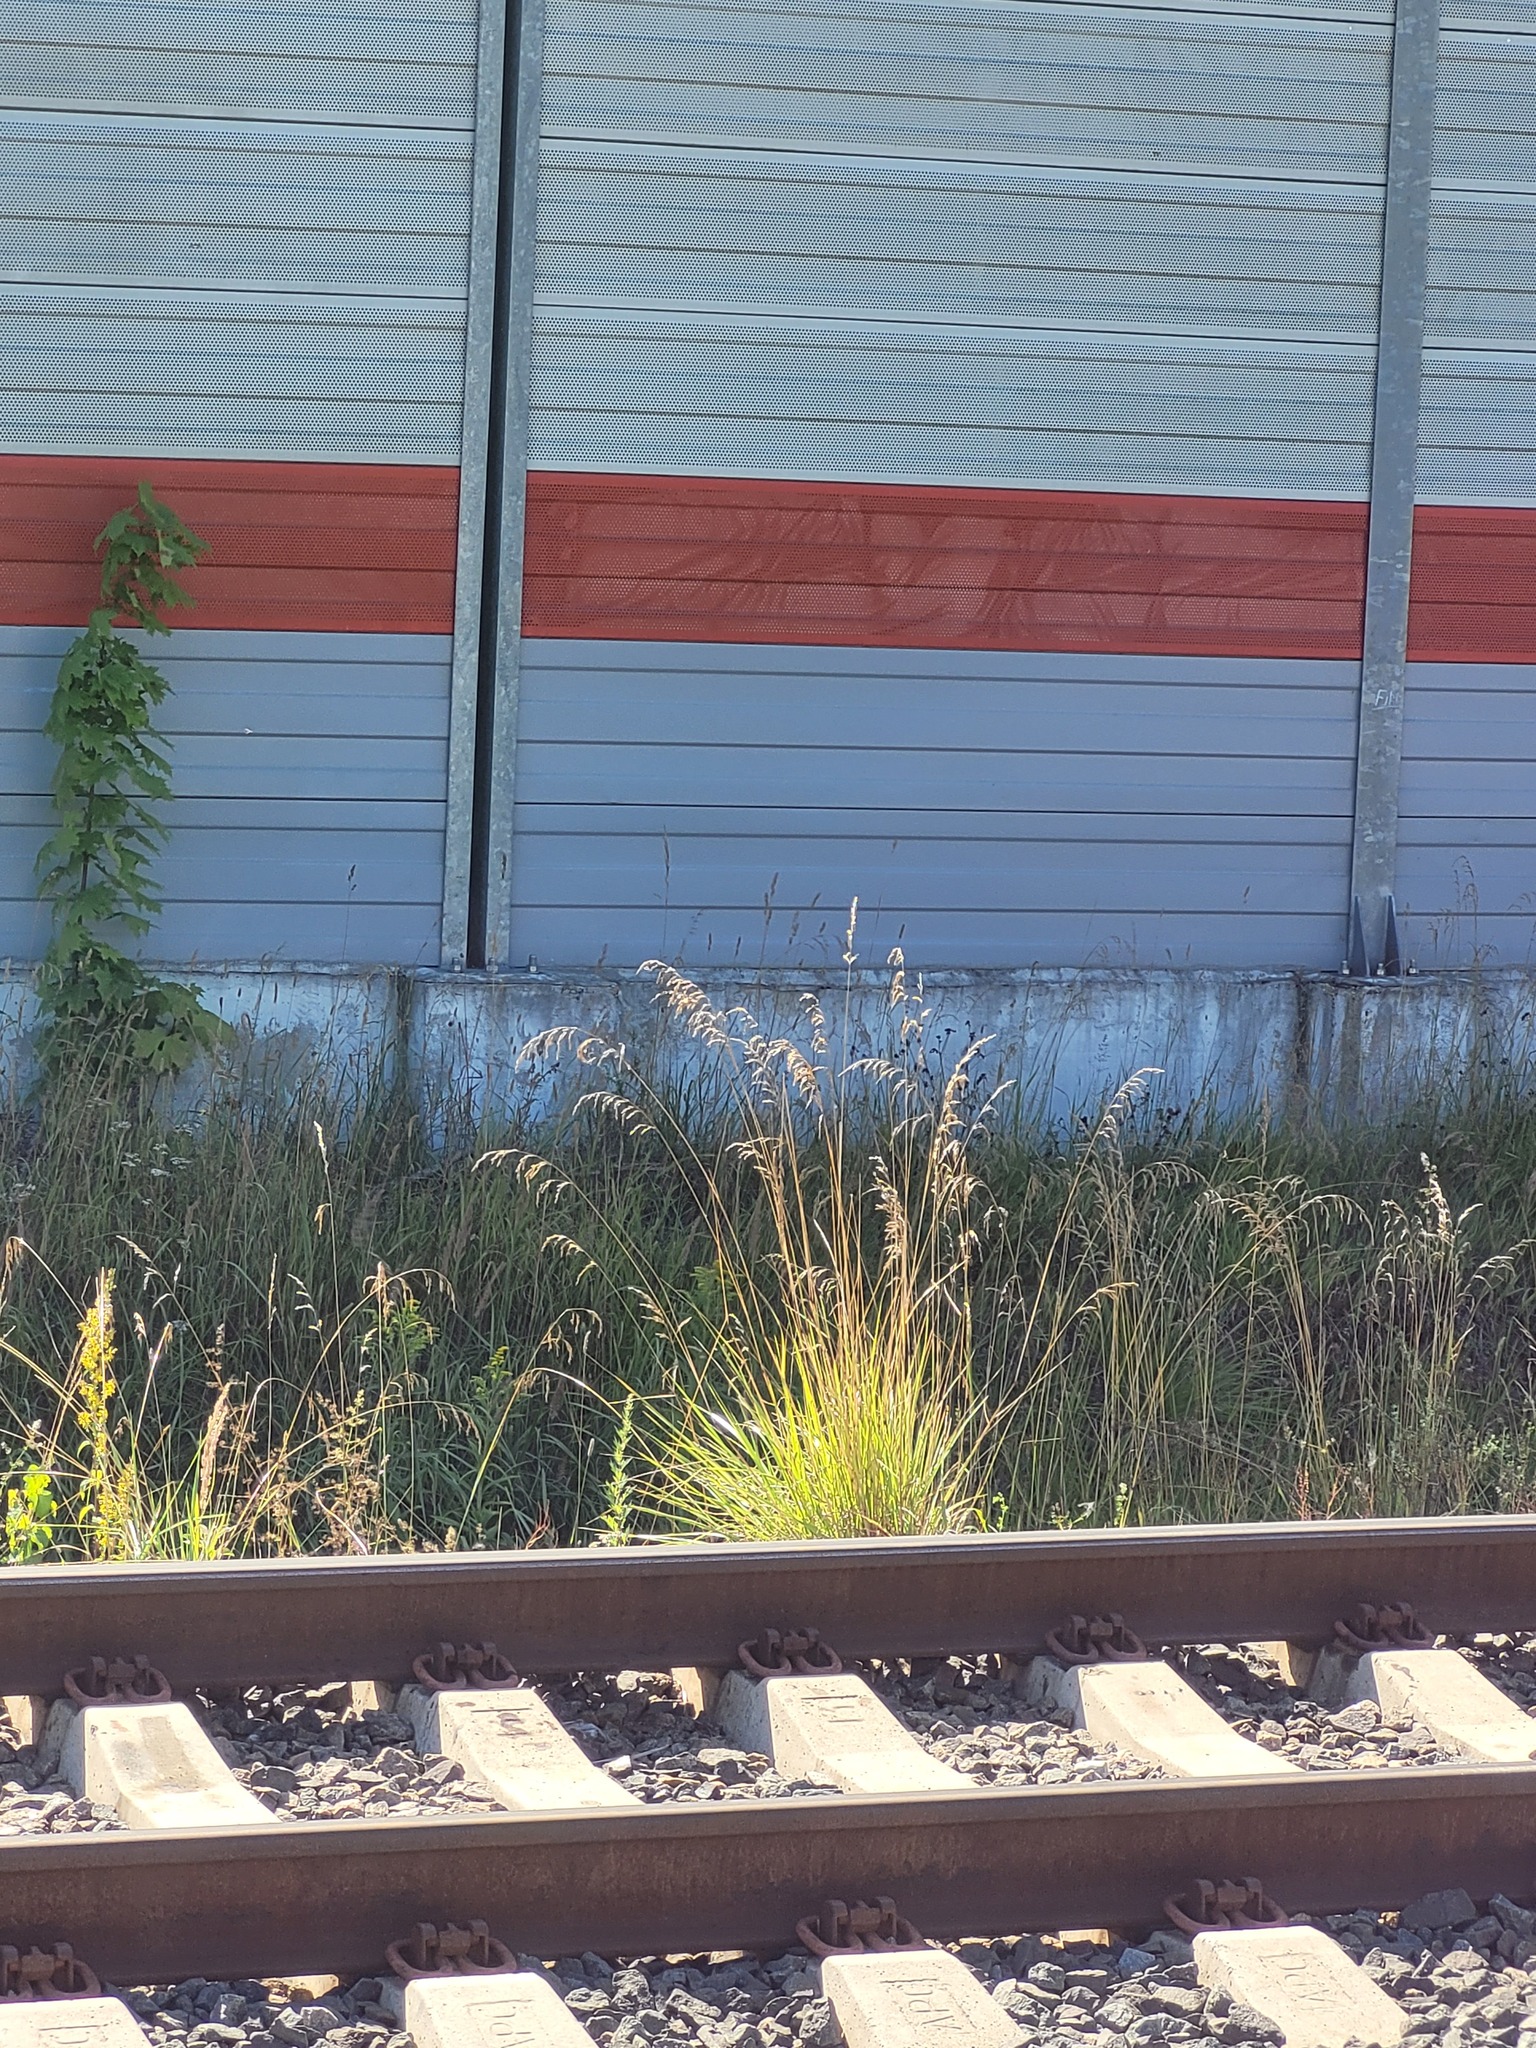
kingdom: Plantae
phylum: Tracheophyta
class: Liliopsida
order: Poales
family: Poaceae
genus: Lolium
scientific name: Lolium arundinaceum
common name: Reed fescue
